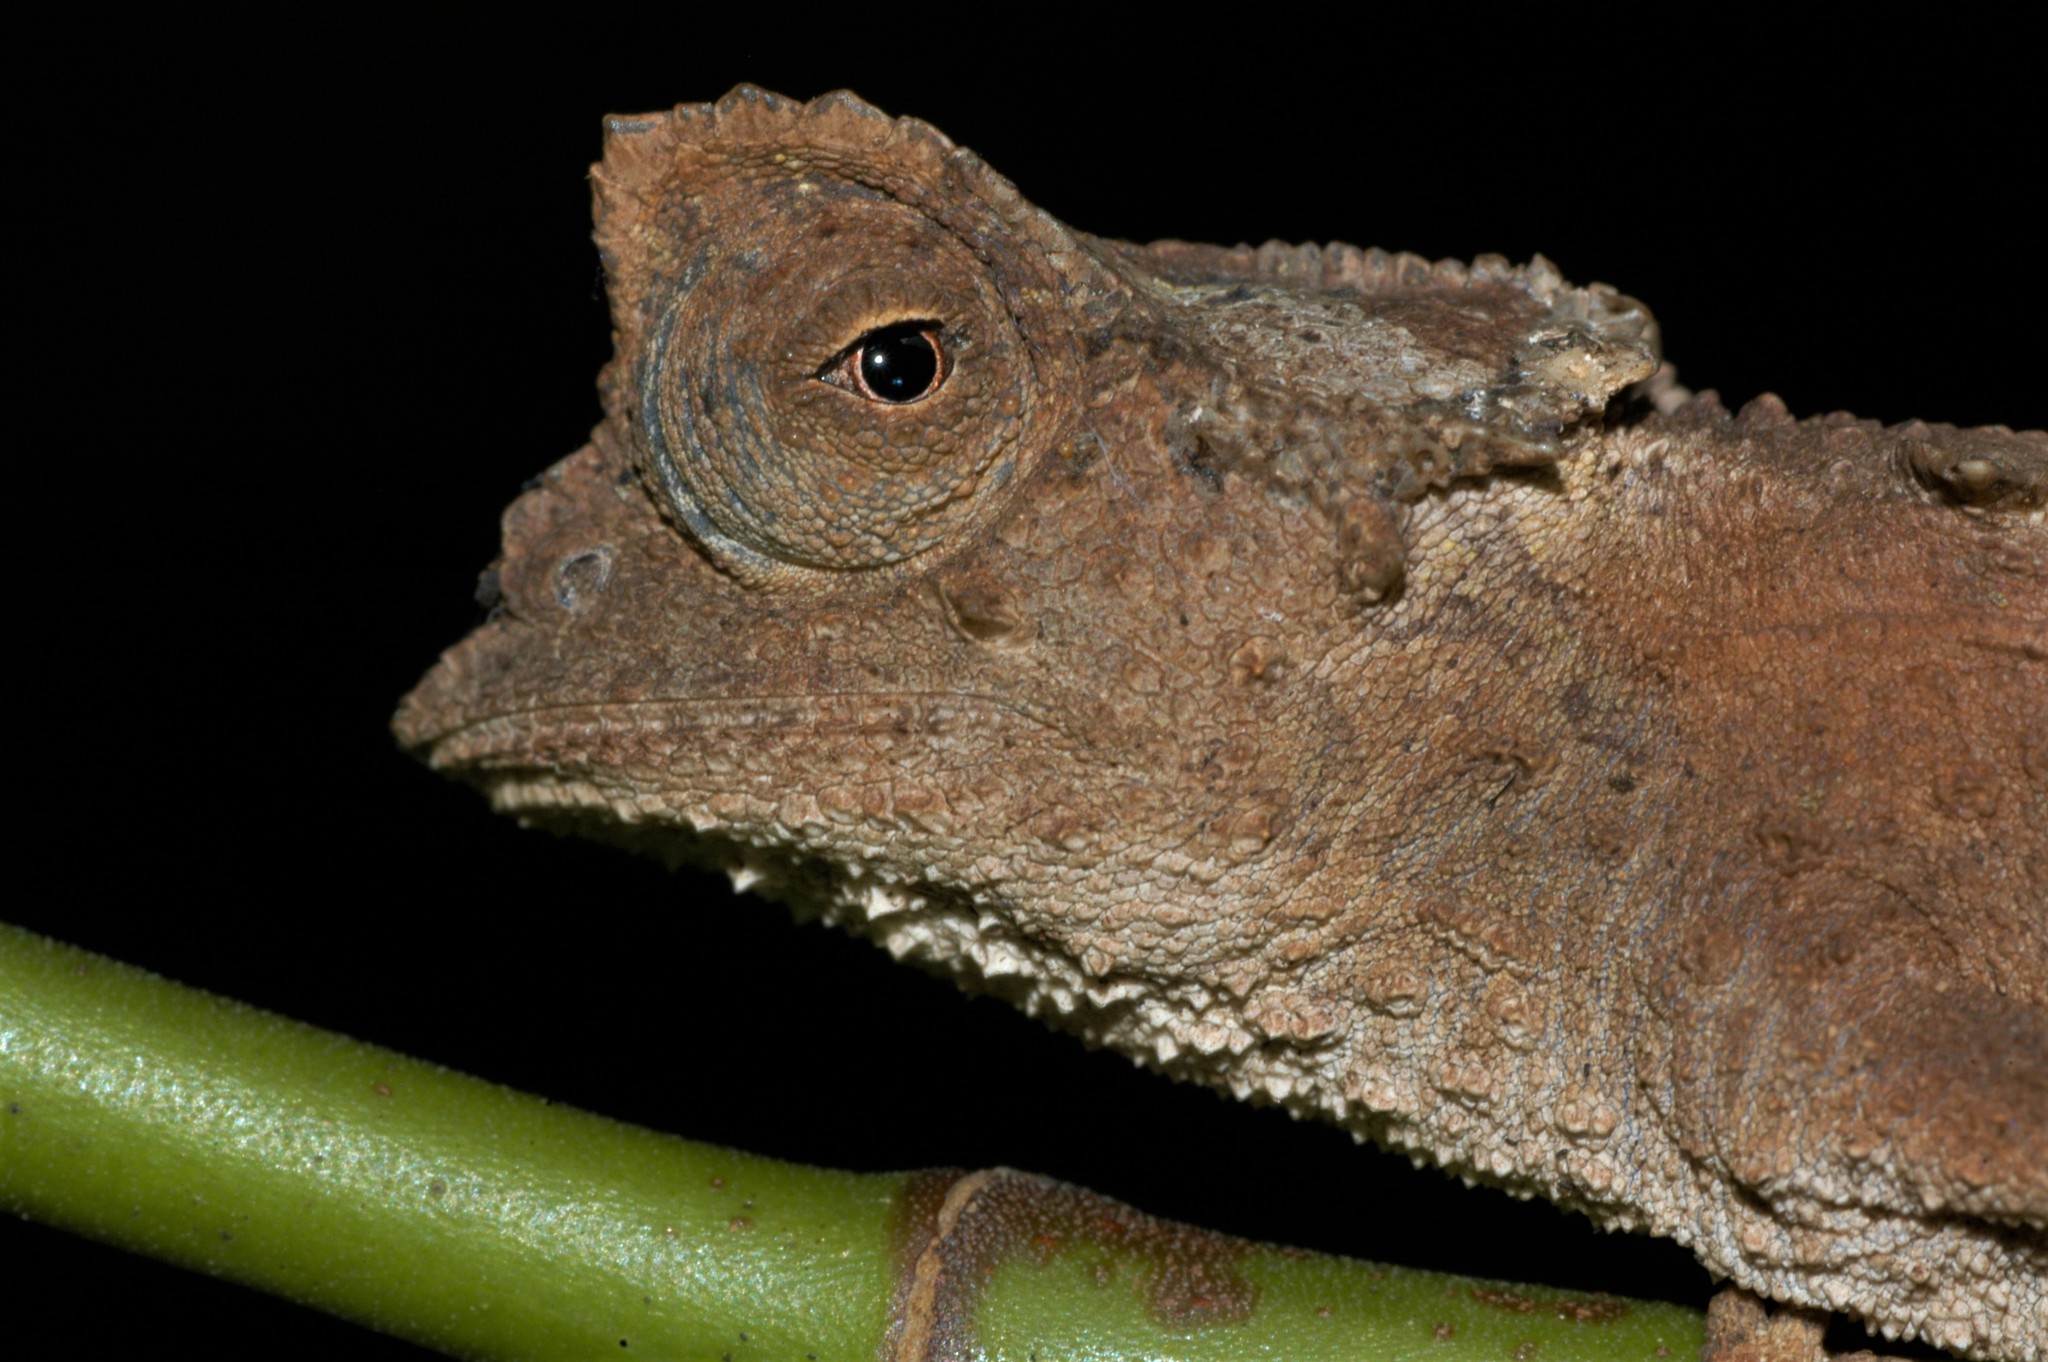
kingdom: Animalia
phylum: Chordata
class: Squamata
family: Chamaeleonidae
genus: Brookesia
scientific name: Brookesia stumpffi
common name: Plated leaf chameleon
